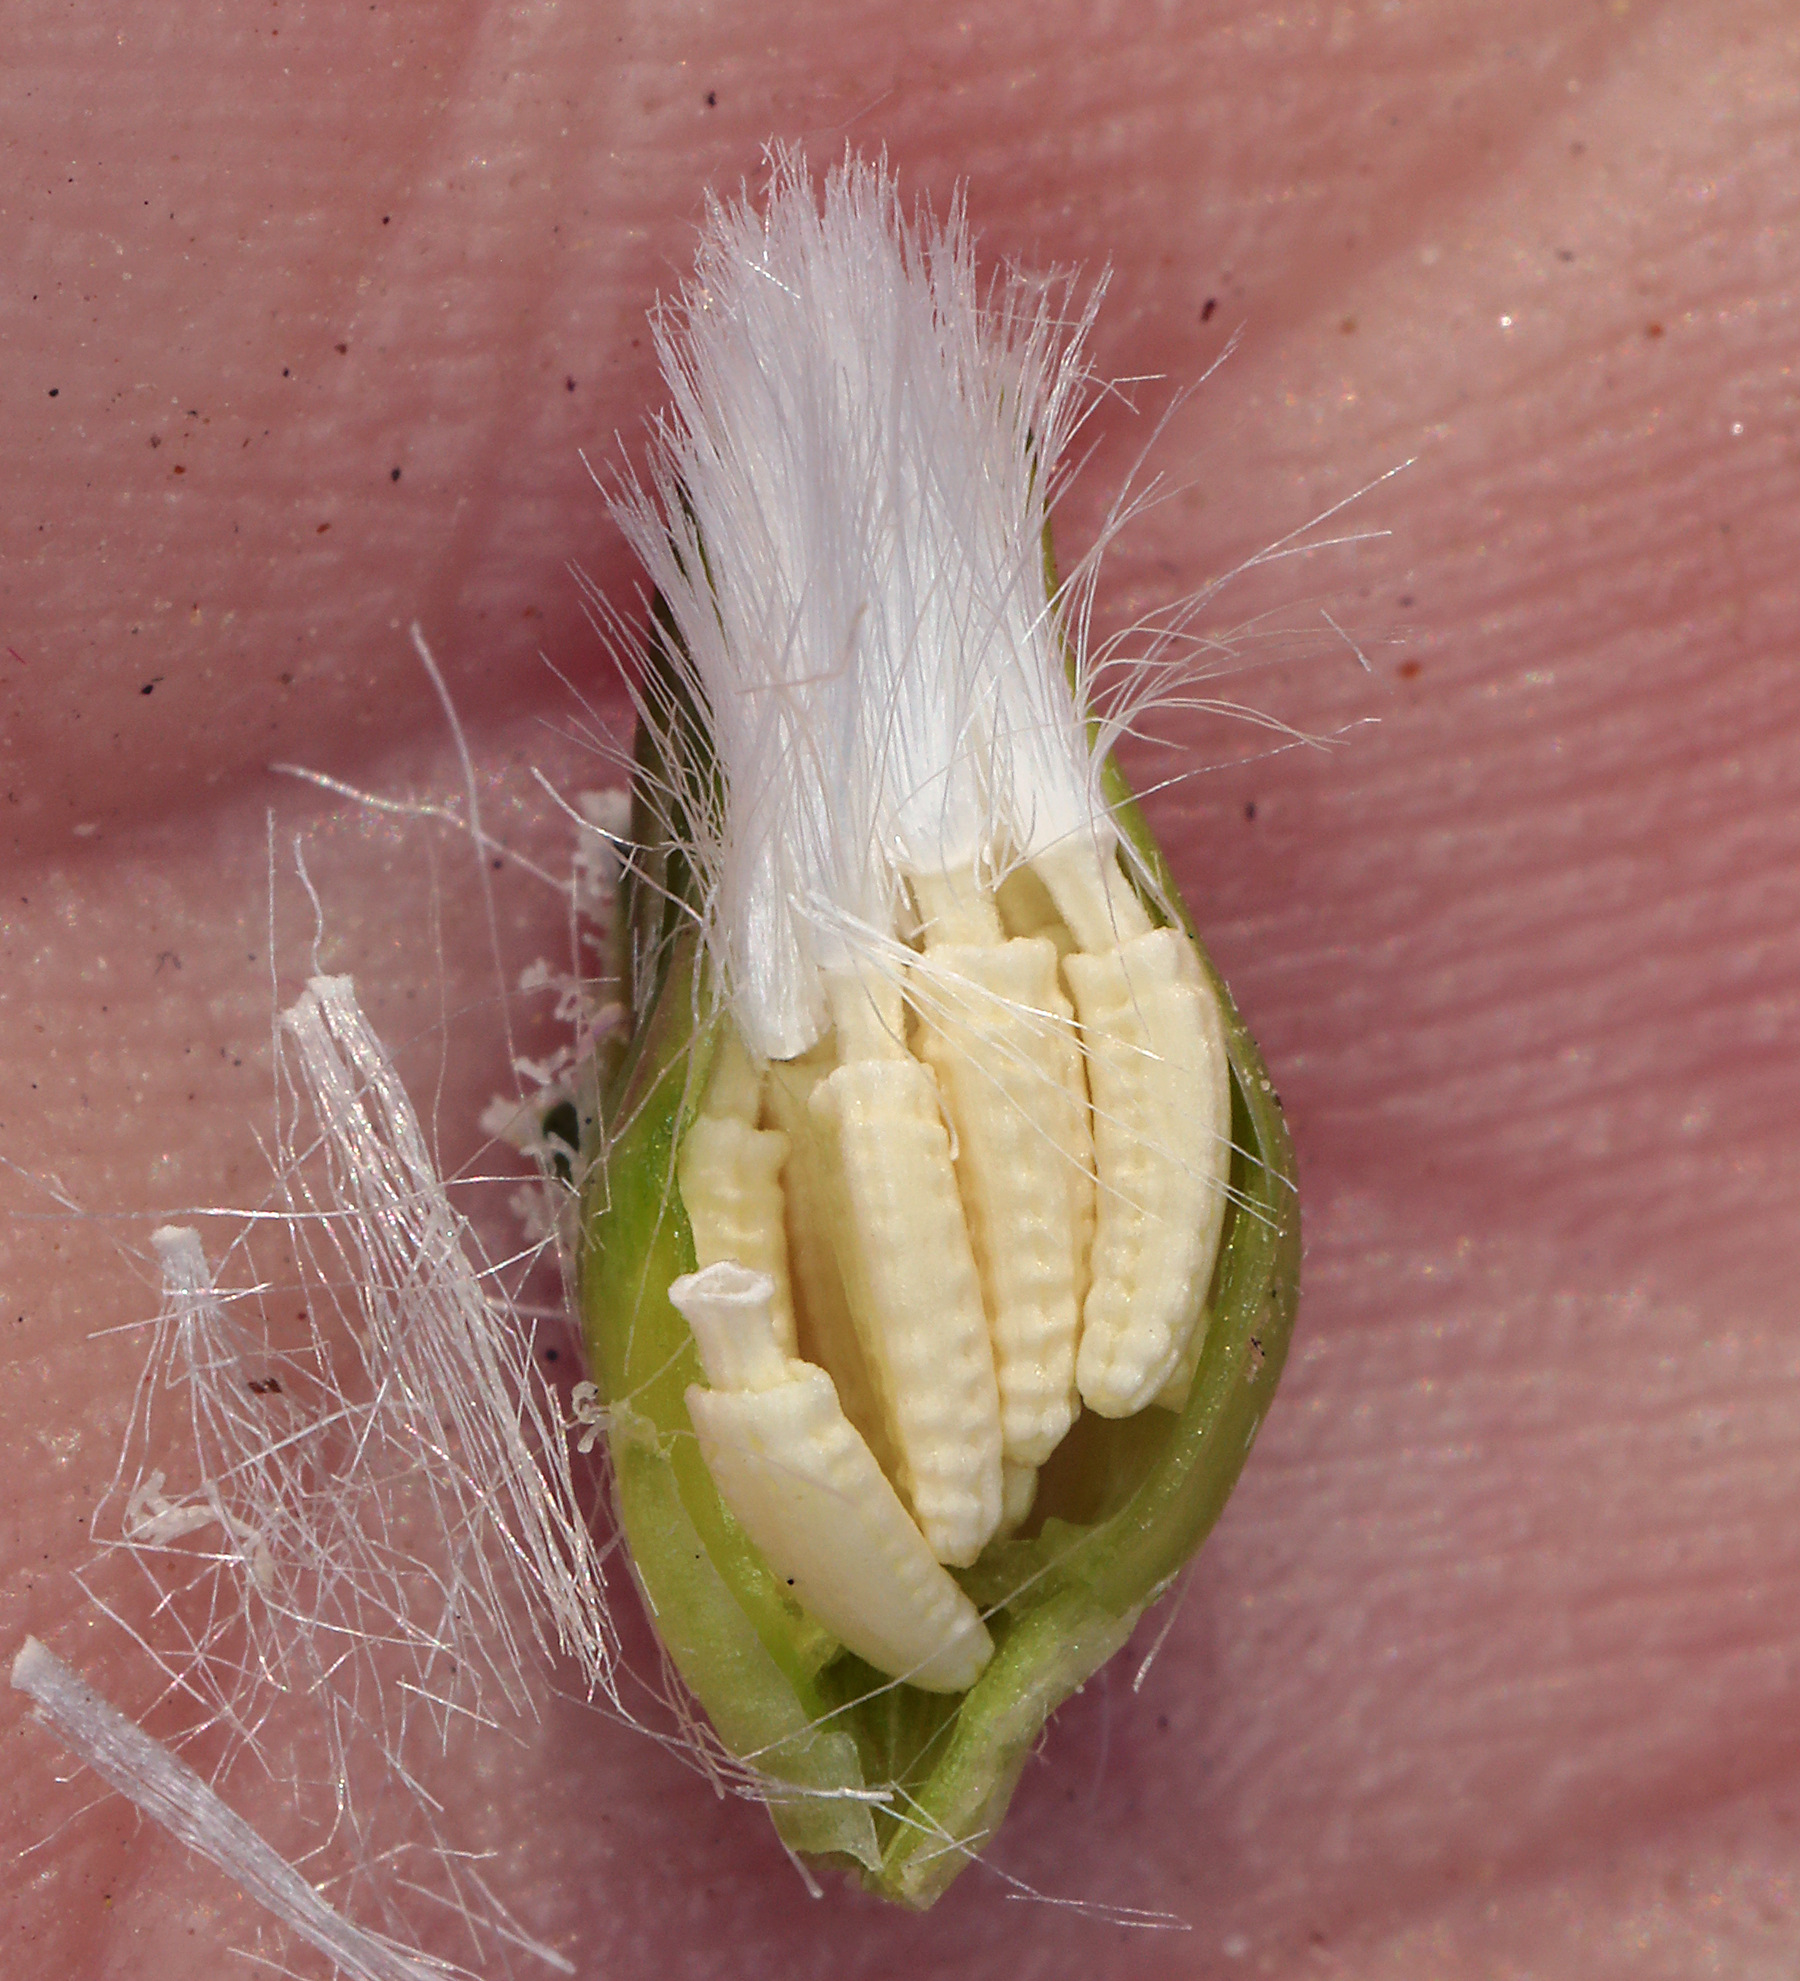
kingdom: Plantae
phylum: Tracheophyta
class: Magnoliopsida
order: Asterales
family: Asteraceae
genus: Glyptopleura
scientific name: Glyptopleura marginata
